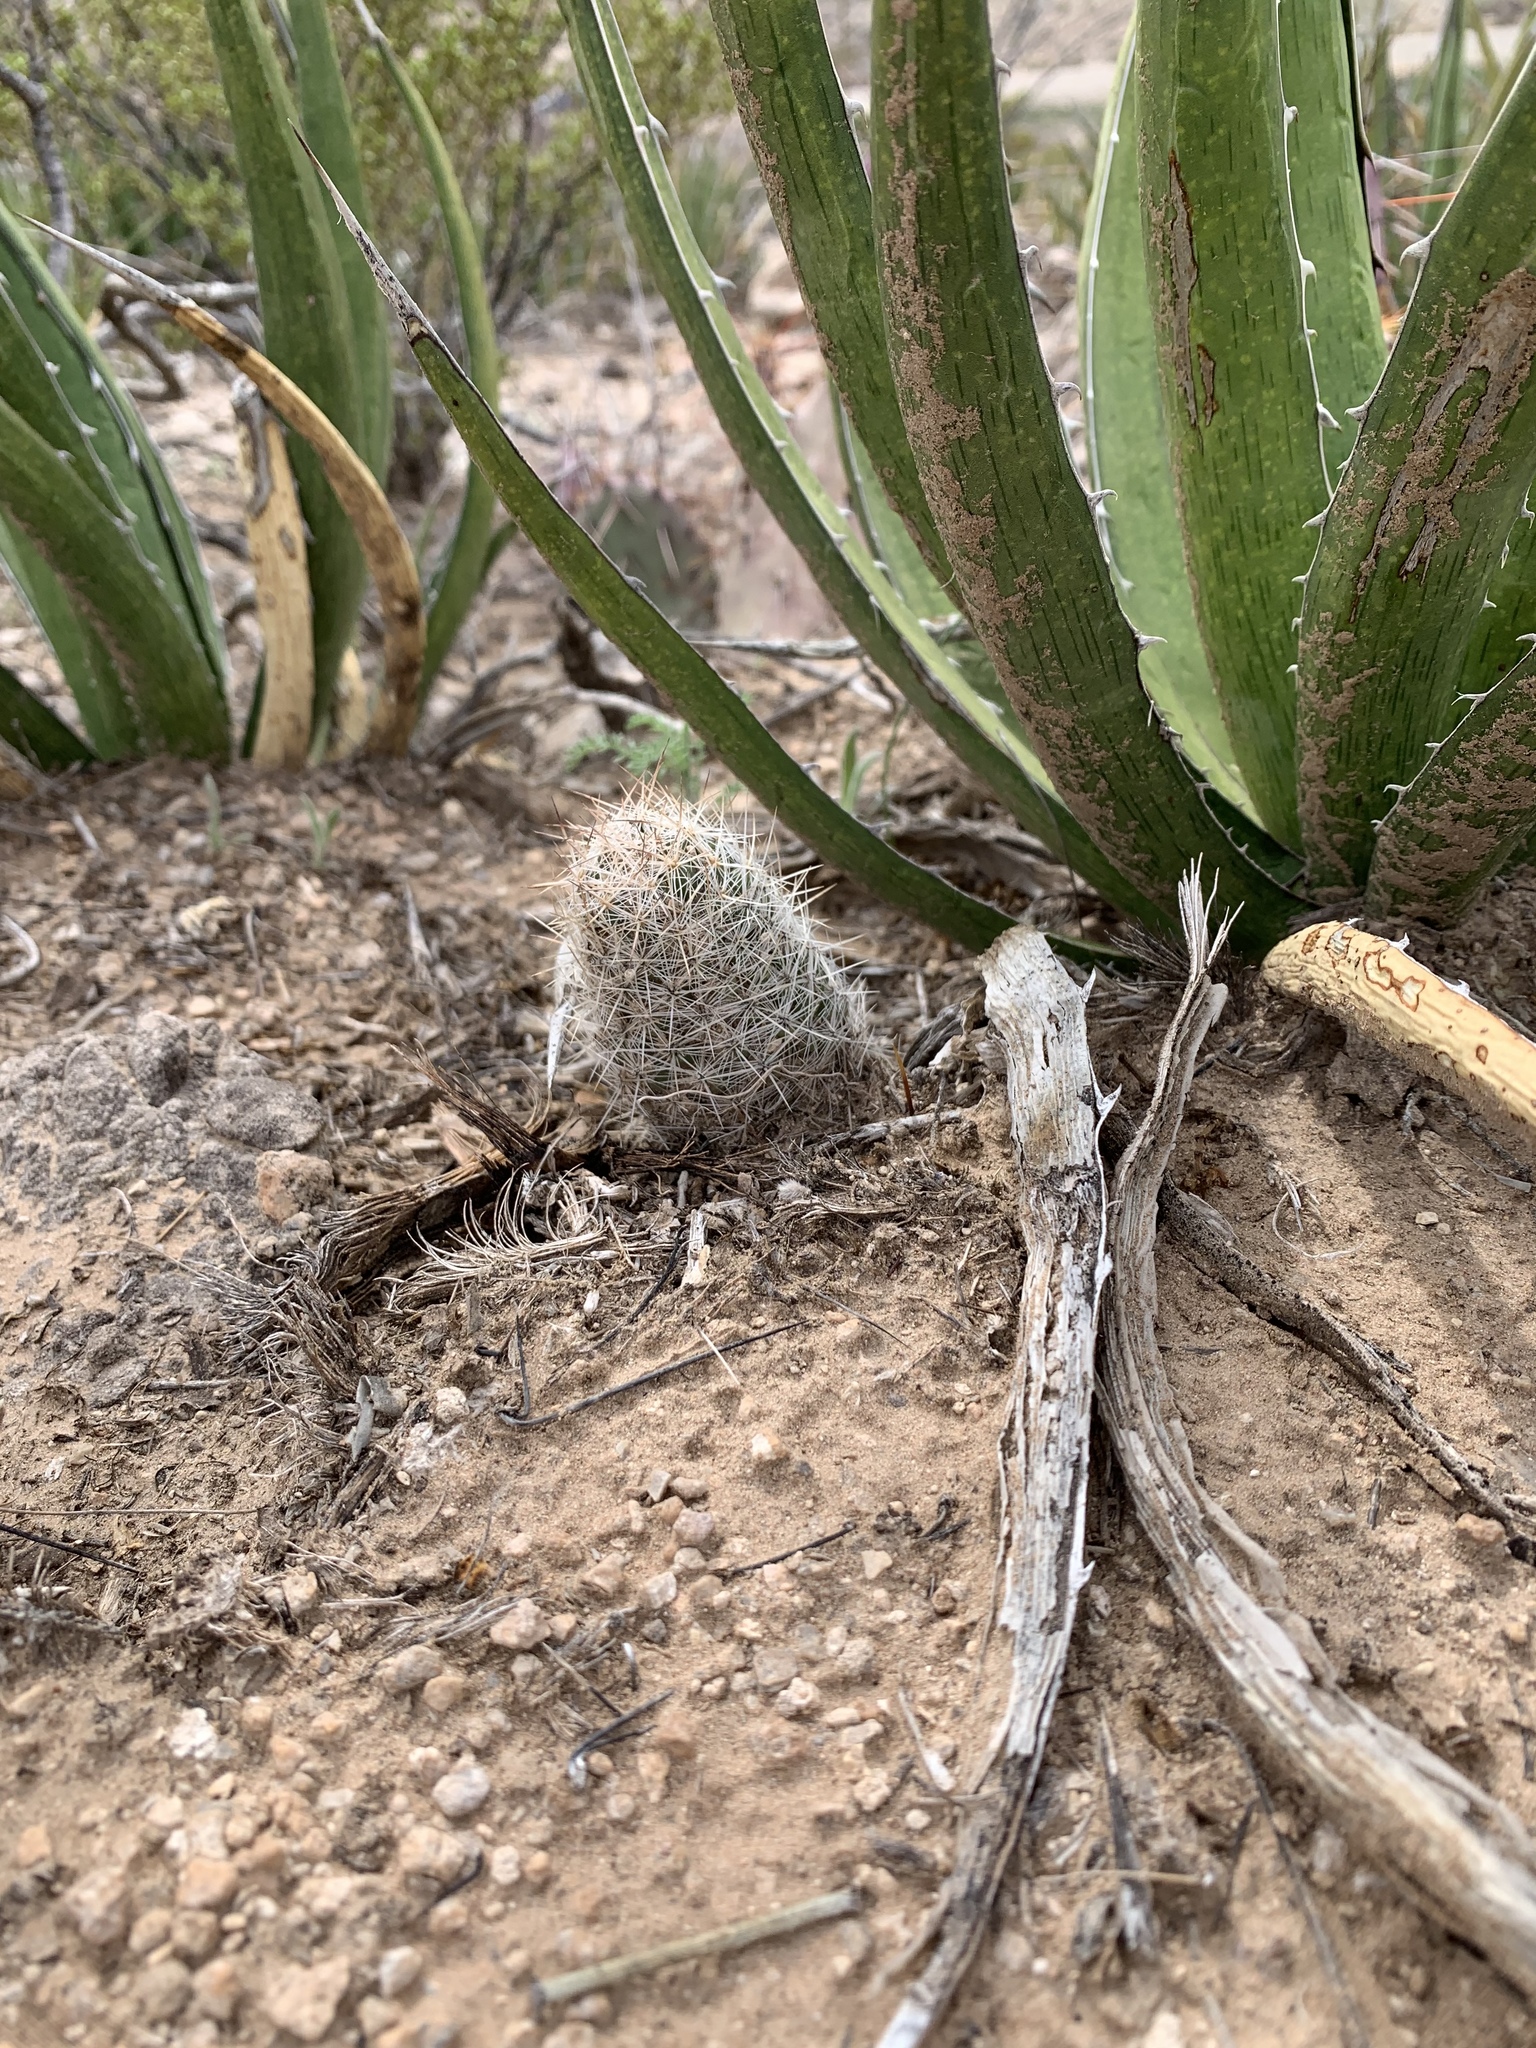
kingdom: Plantae
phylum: Tracheophyta
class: Magnoliopsida
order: Caryophyllales
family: Cactaceae
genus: Pelecyphora
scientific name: Pelecyphora tuberculosa
